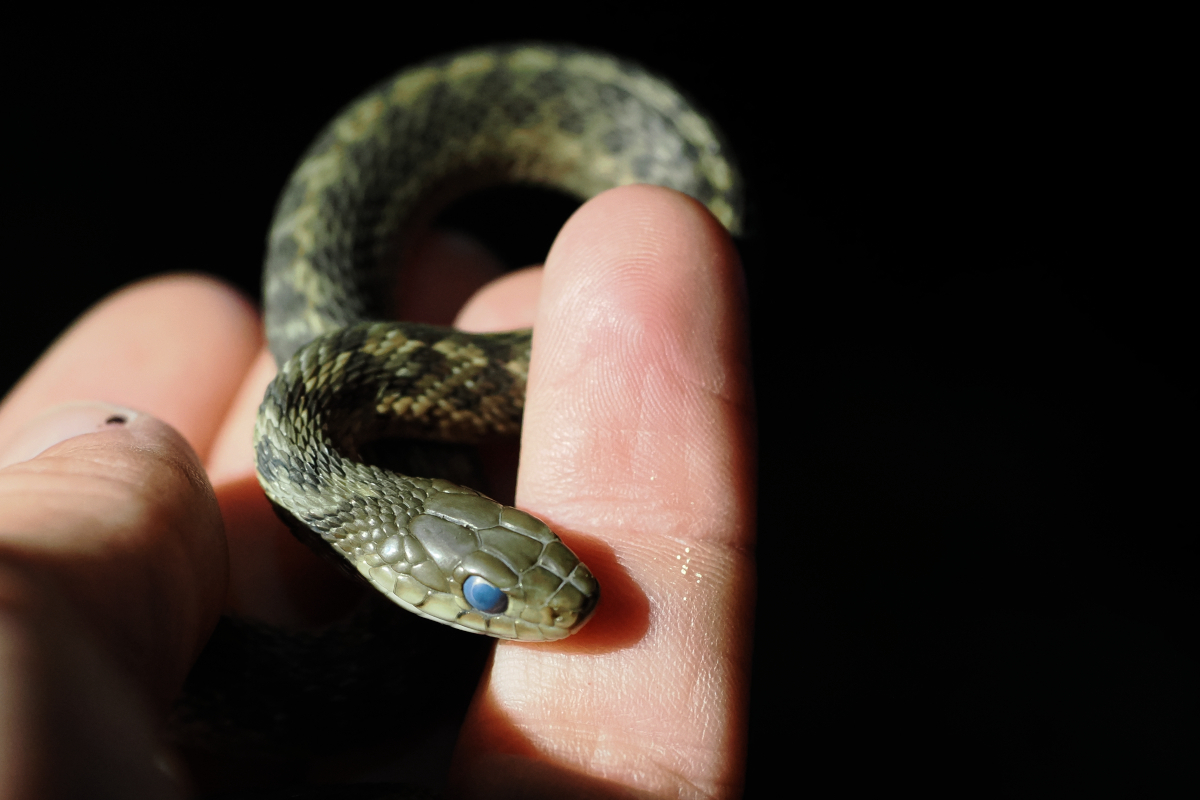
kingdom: Animalia
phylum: Chordata
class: Squamata
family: Colubridae
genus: Thamnophis
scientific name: Thamnophis sirtalis
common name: Common garter snake
